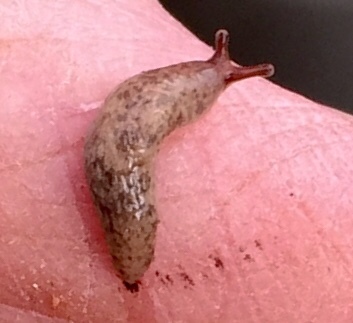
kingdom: Animalia
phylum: Mollusca
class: Gastropoda
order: Stylommatophora
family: Agriolimacidae
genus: Deroceras
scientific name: Deroceras reticulatum
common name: Gray field slug
